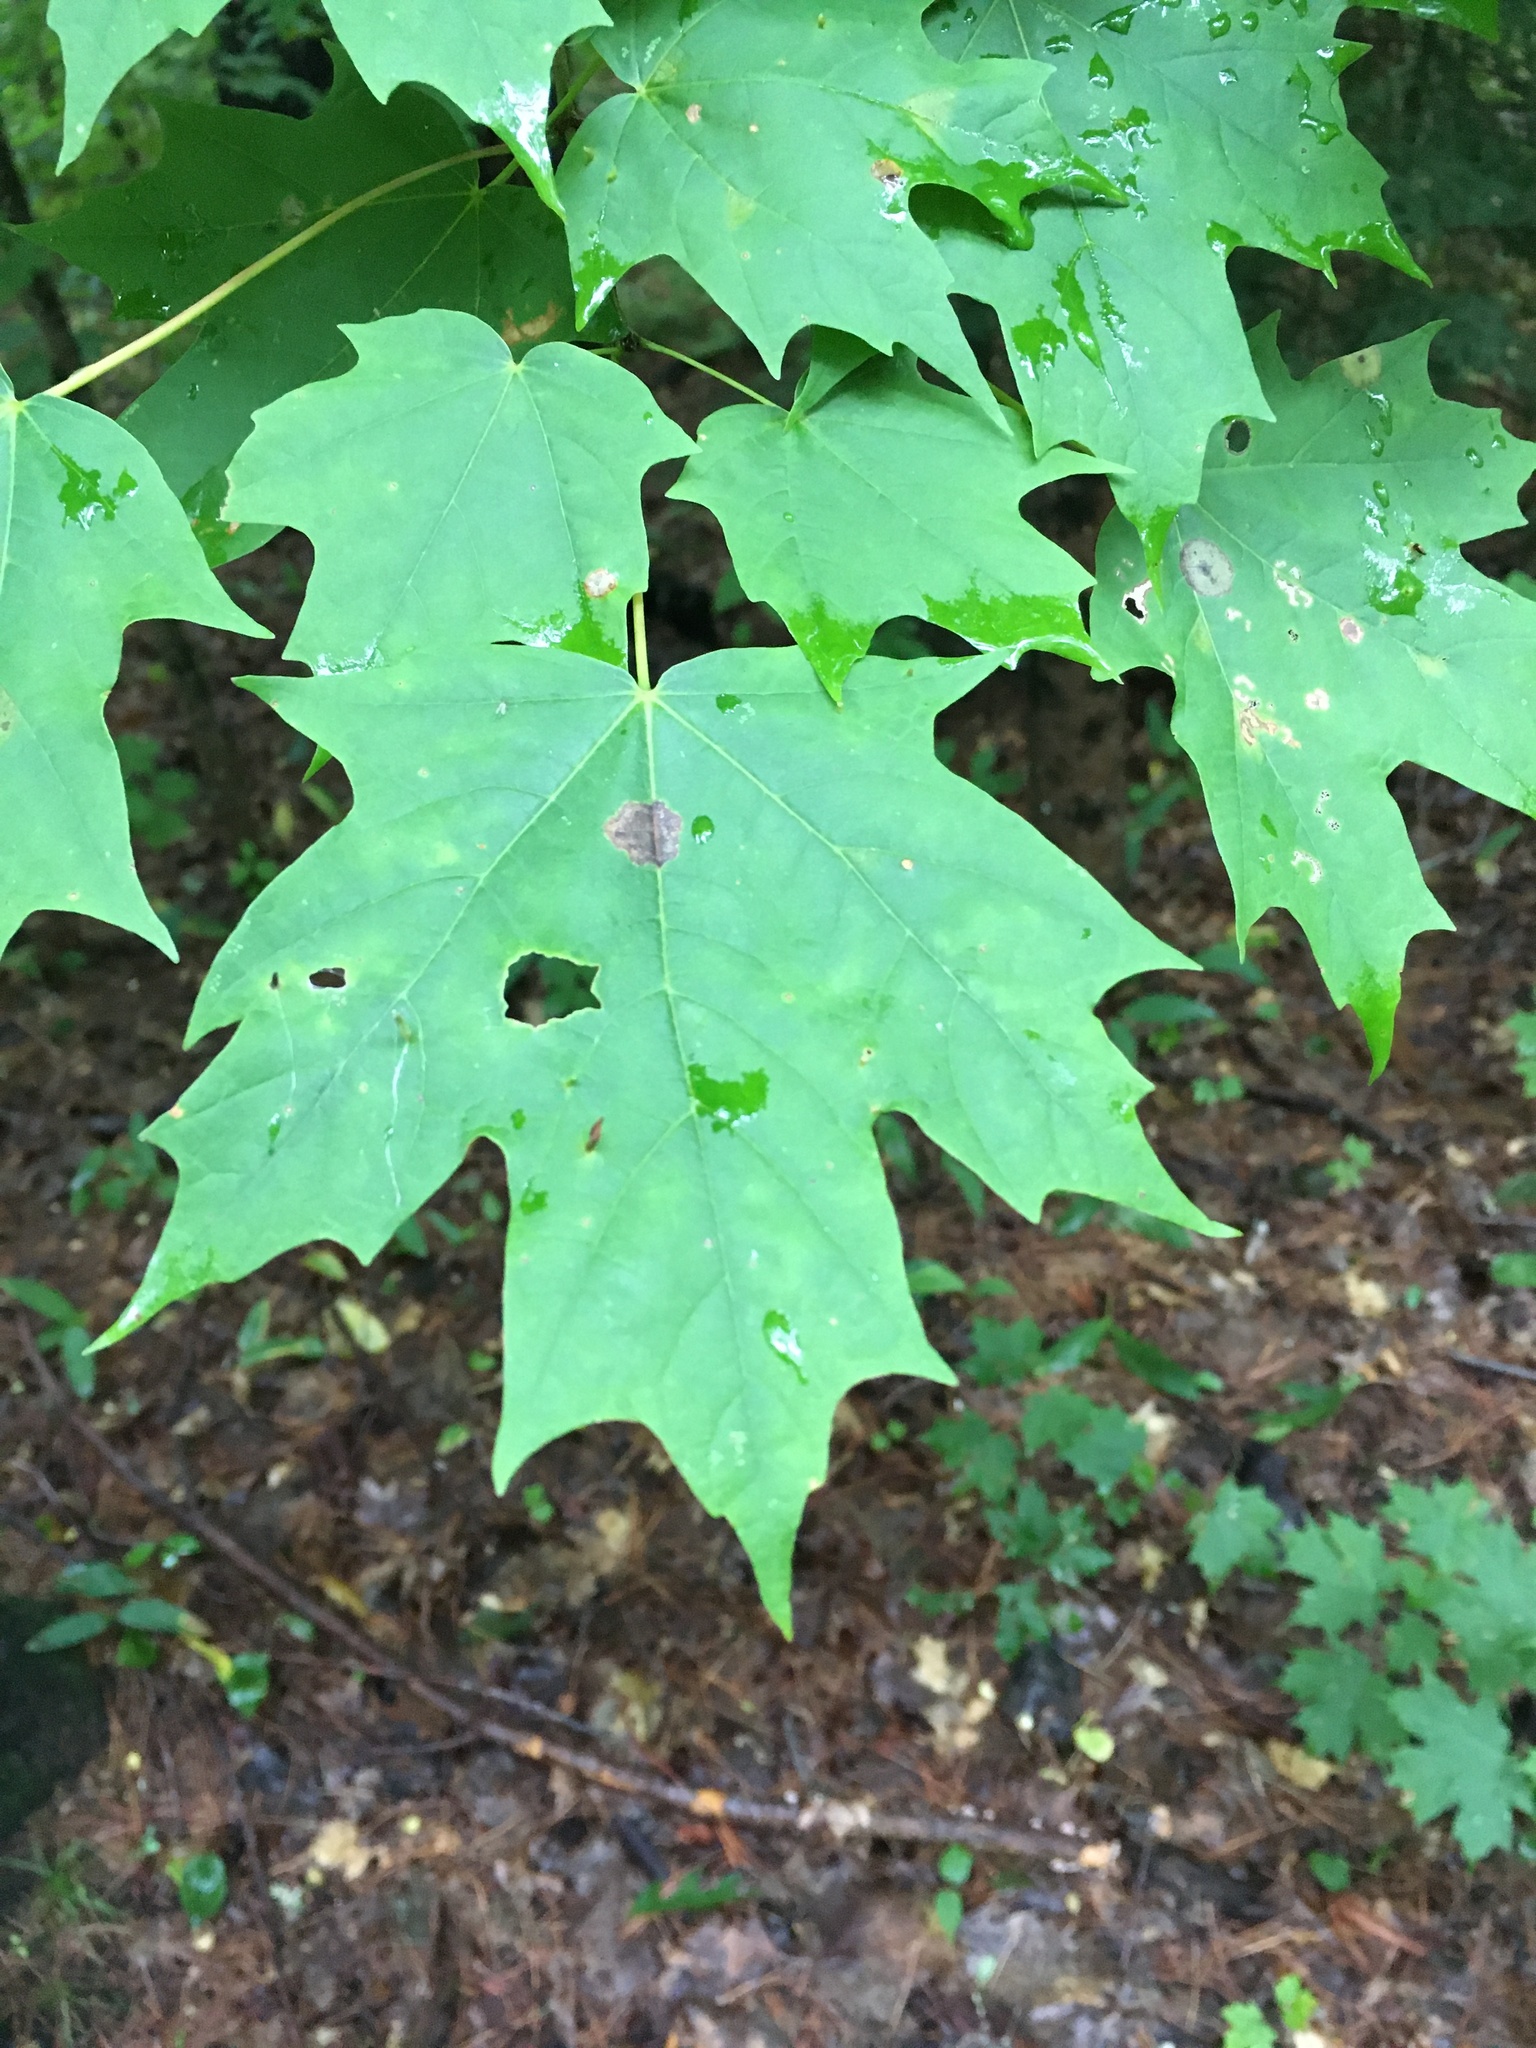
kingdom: Plantae
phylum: Tracheophyta
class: Magnoliopsida
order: Sapindales
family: Sapindaceae
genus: Acer
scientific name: Acer saccharum
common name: Sugar maple
